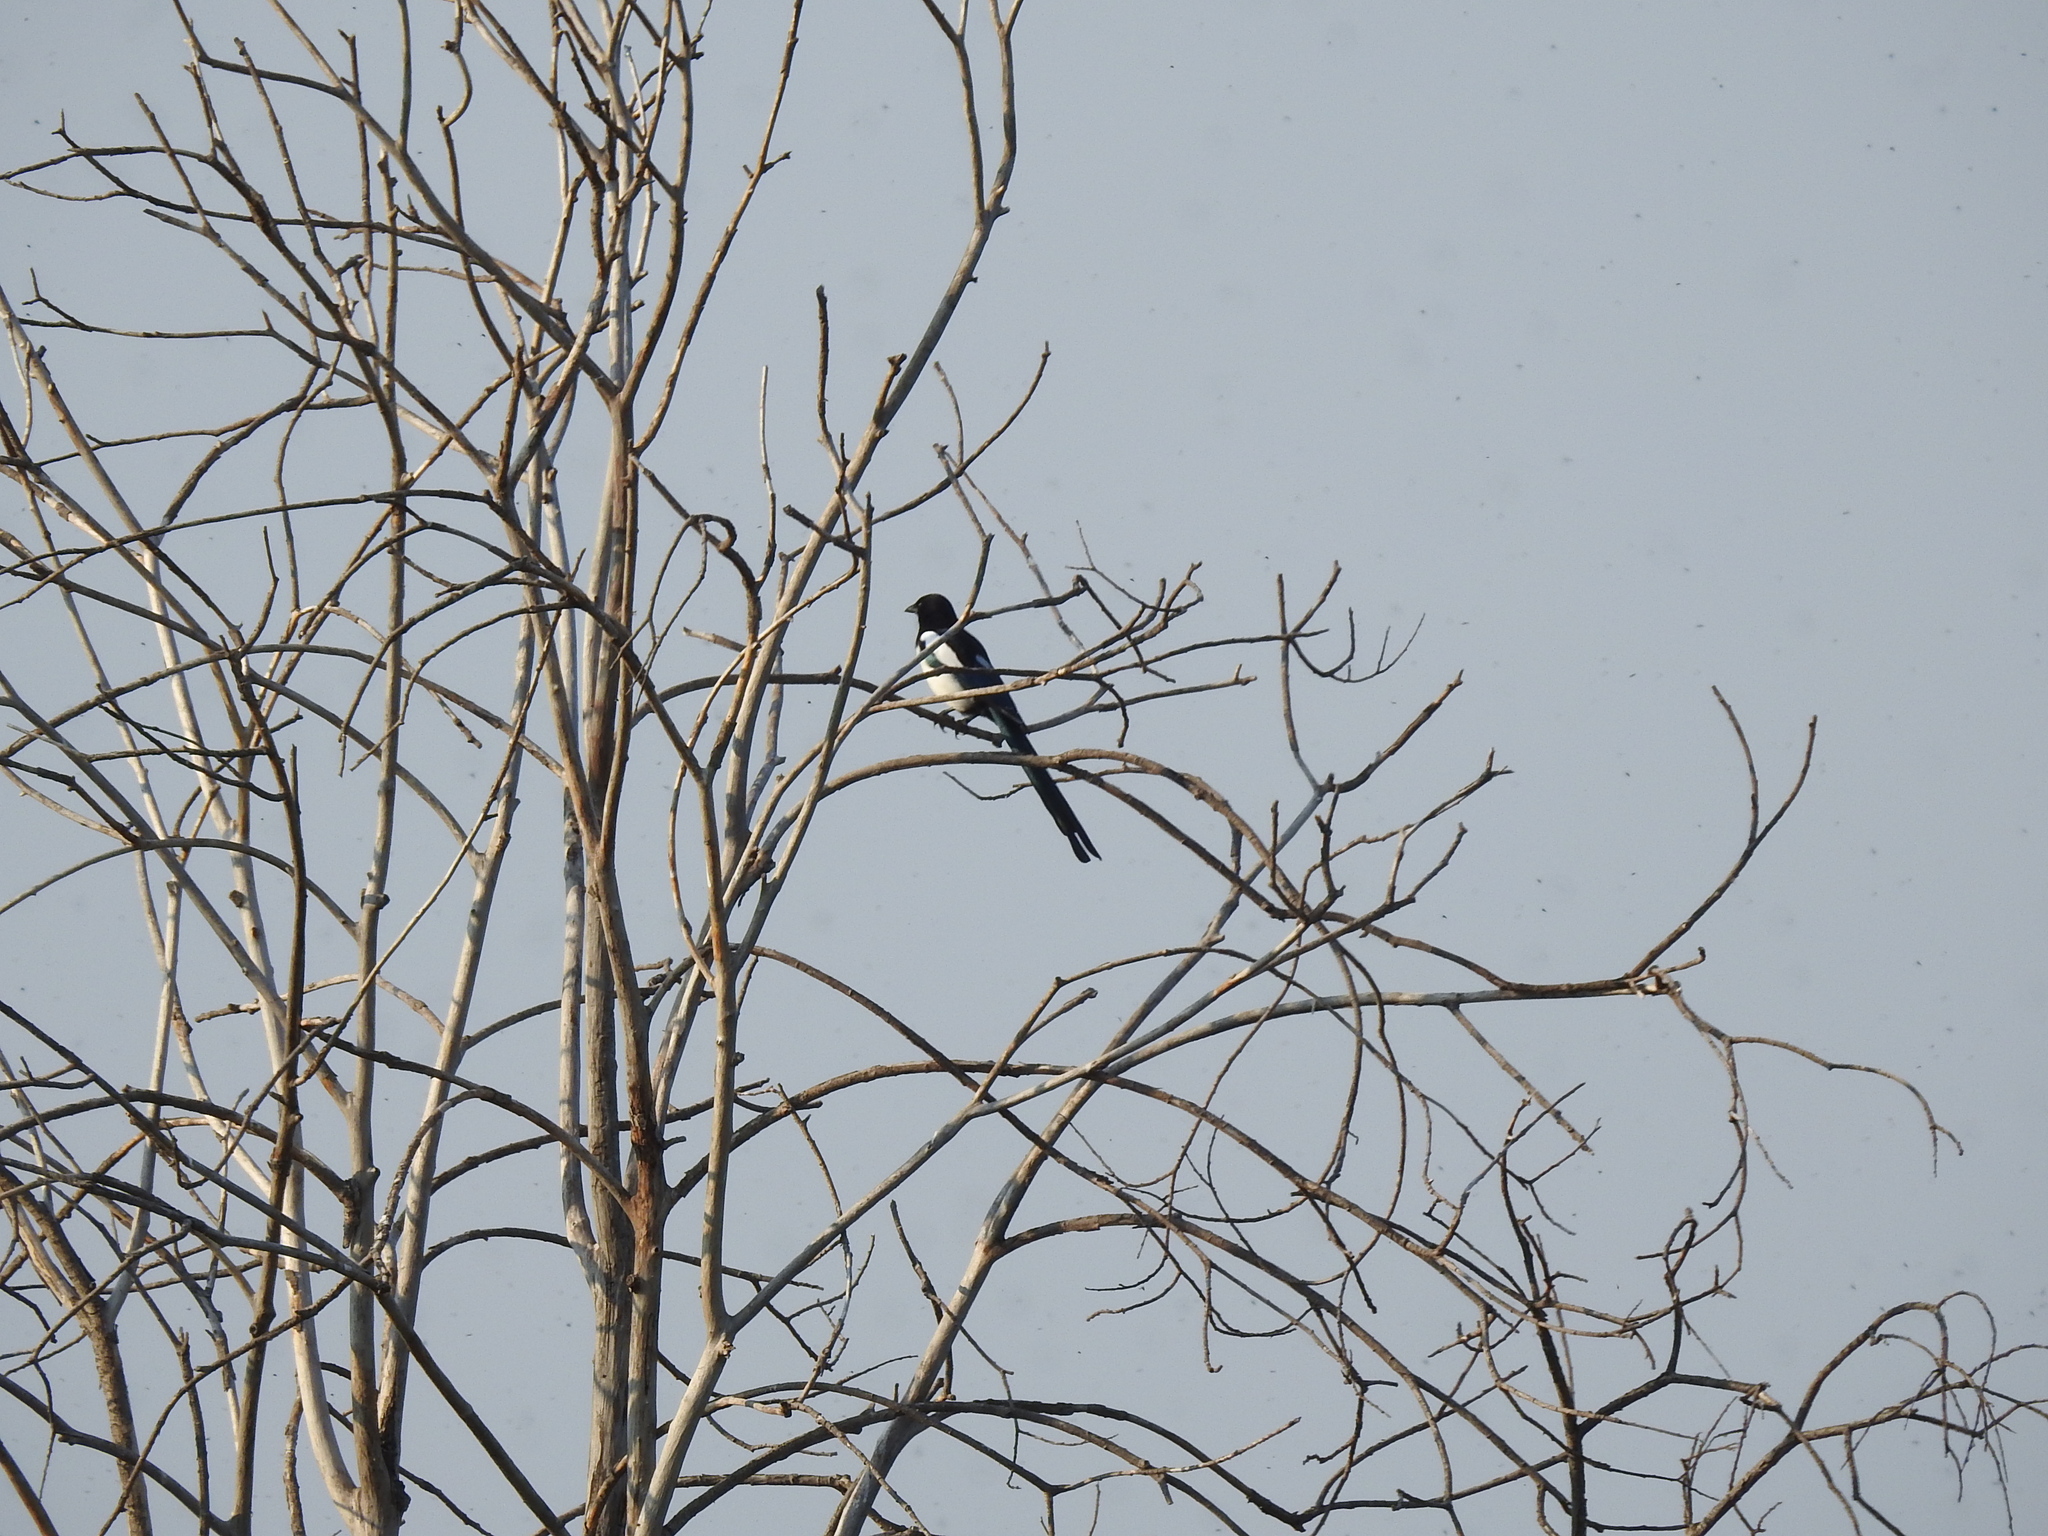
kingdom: Animalia
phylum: Chordata
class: Aves
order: Passeriformes
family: Corvidae
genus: Pica
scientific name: Pica pica
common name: Eurasian magpie
